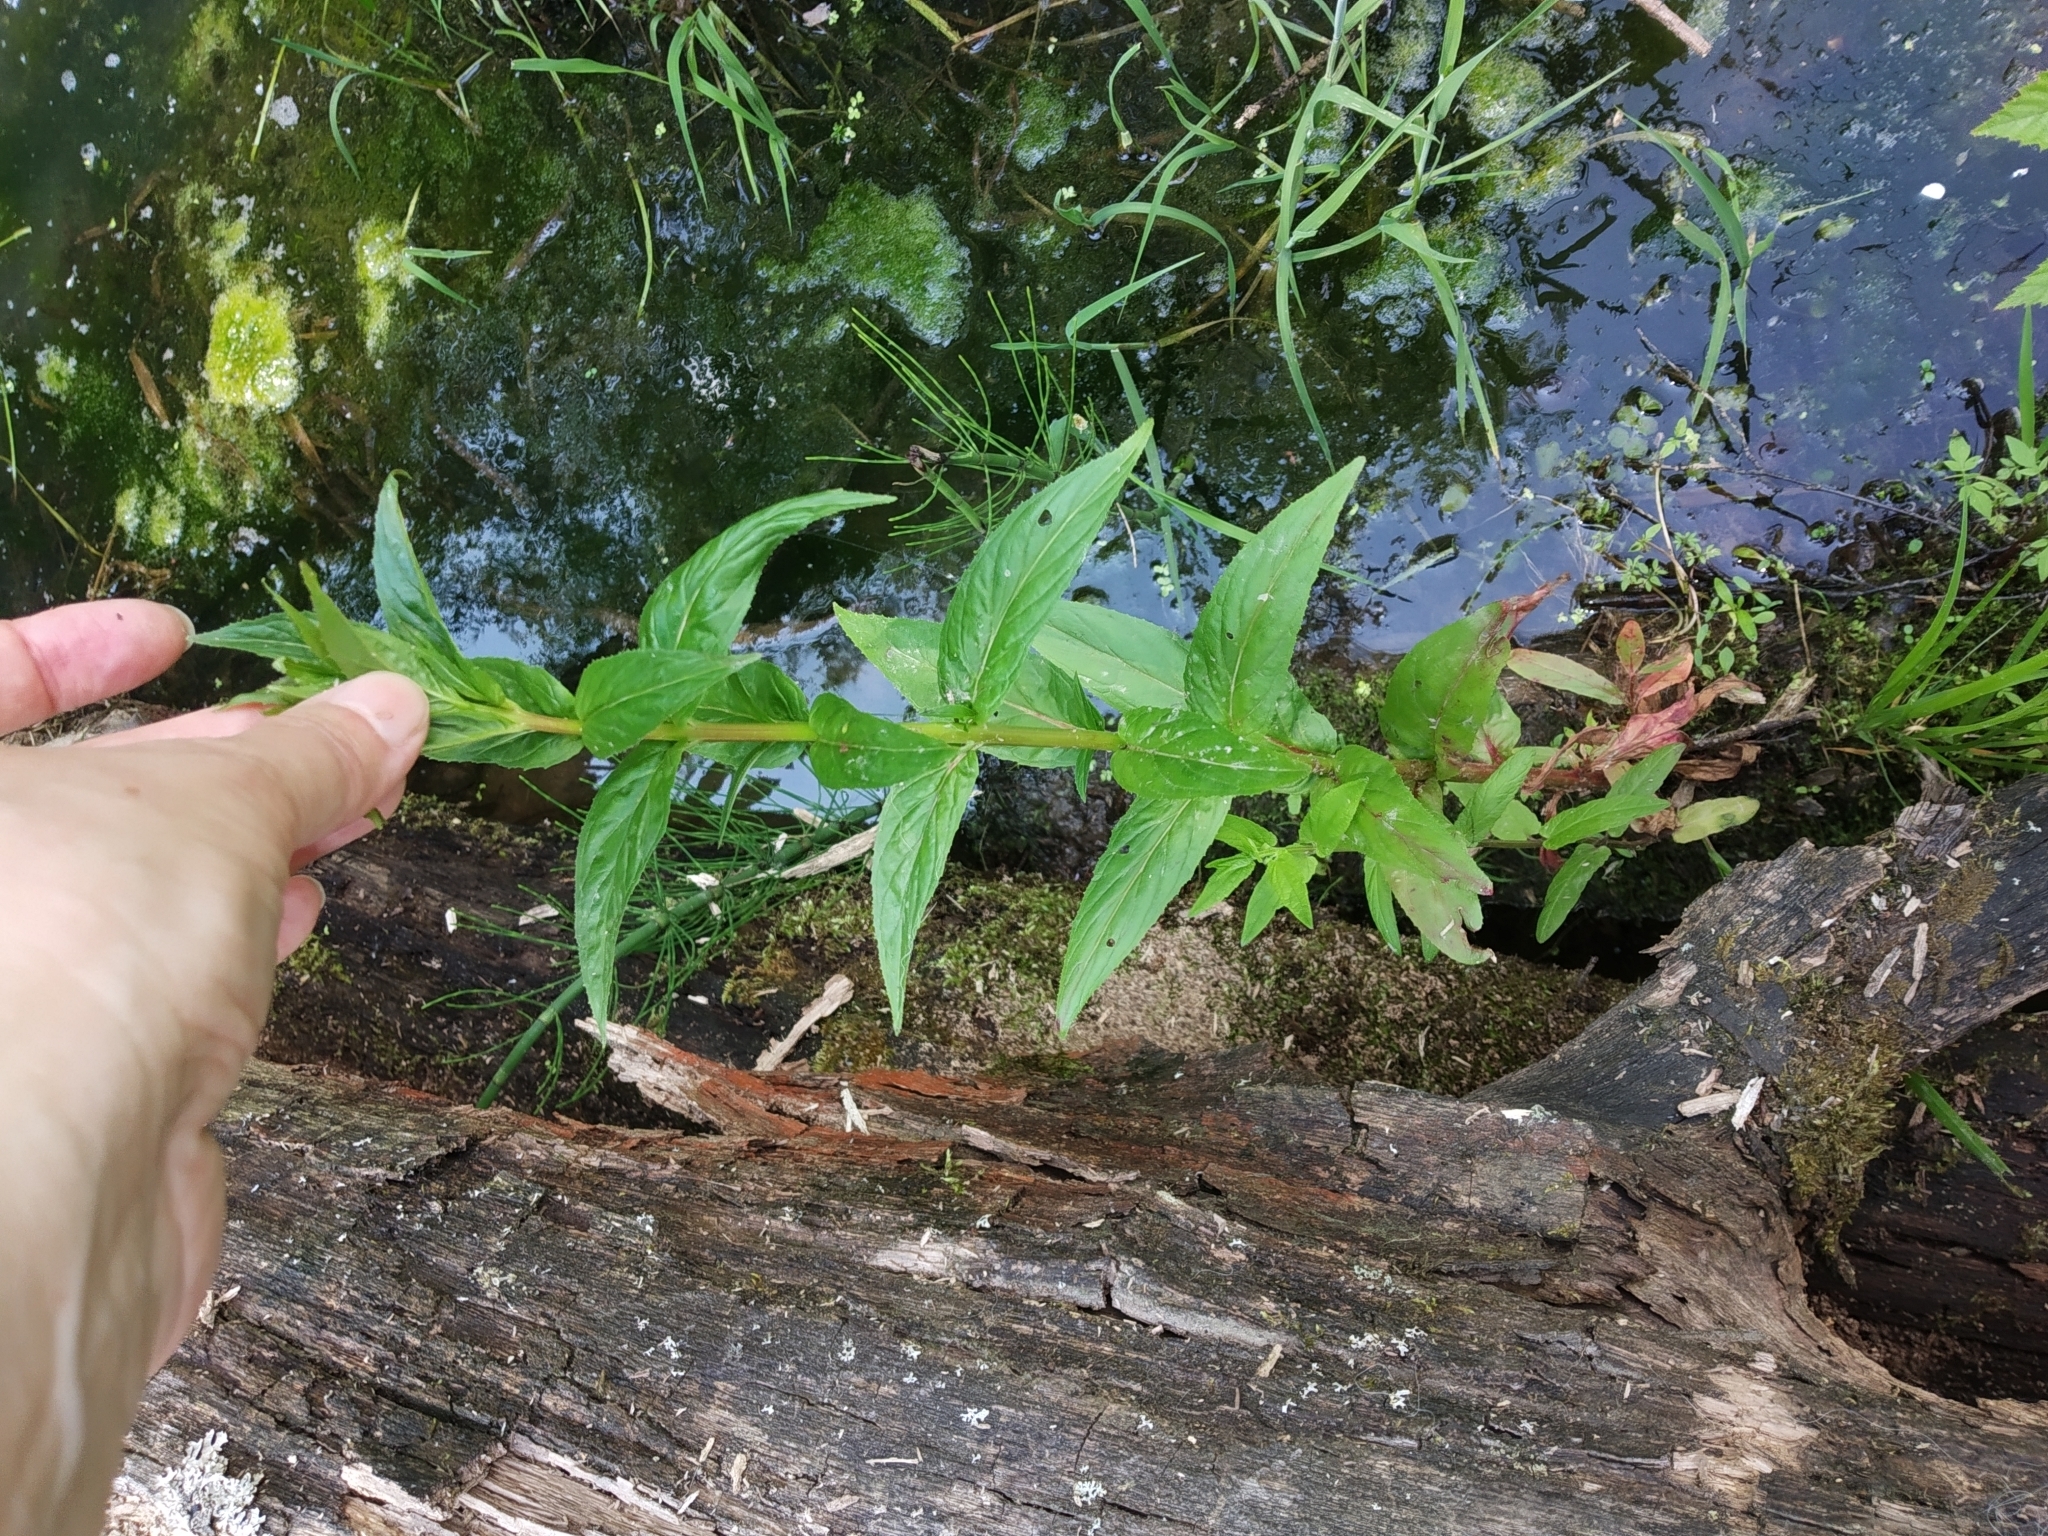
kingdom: Plantae
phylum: Tracheophyta
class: Magnoliopsida
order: Myrtales
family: Onagraceae
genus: Epilobium
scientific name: Epilobium
